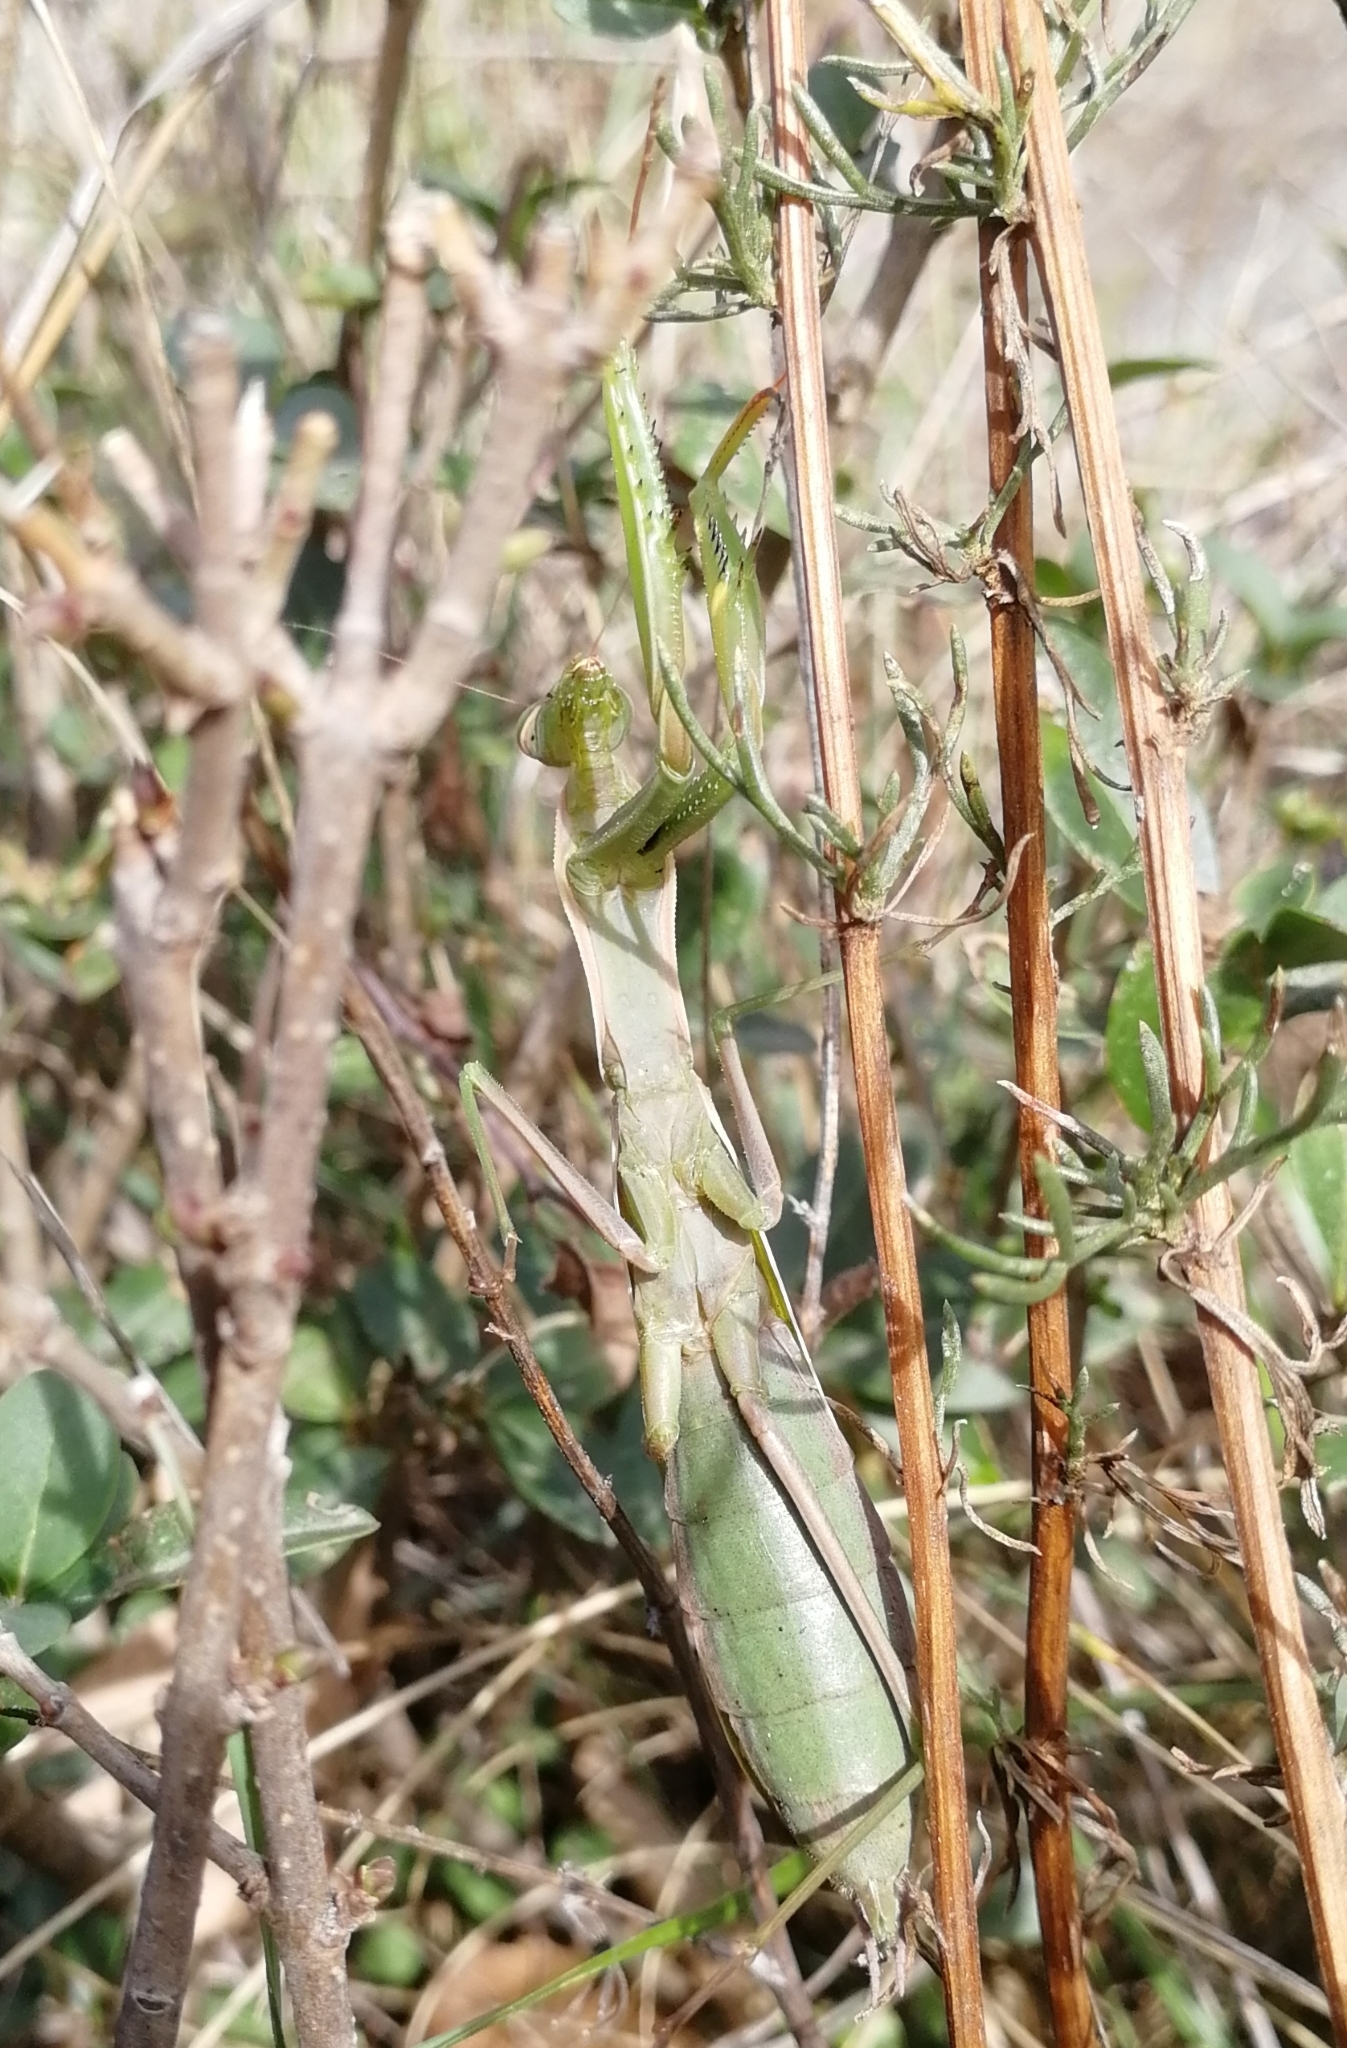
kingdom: Animalia
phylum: Arthropoda
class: Insecta
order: Mantodea
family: Mantidae
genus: Mantis
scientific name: Mantis religiosa
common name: Praying mantis
